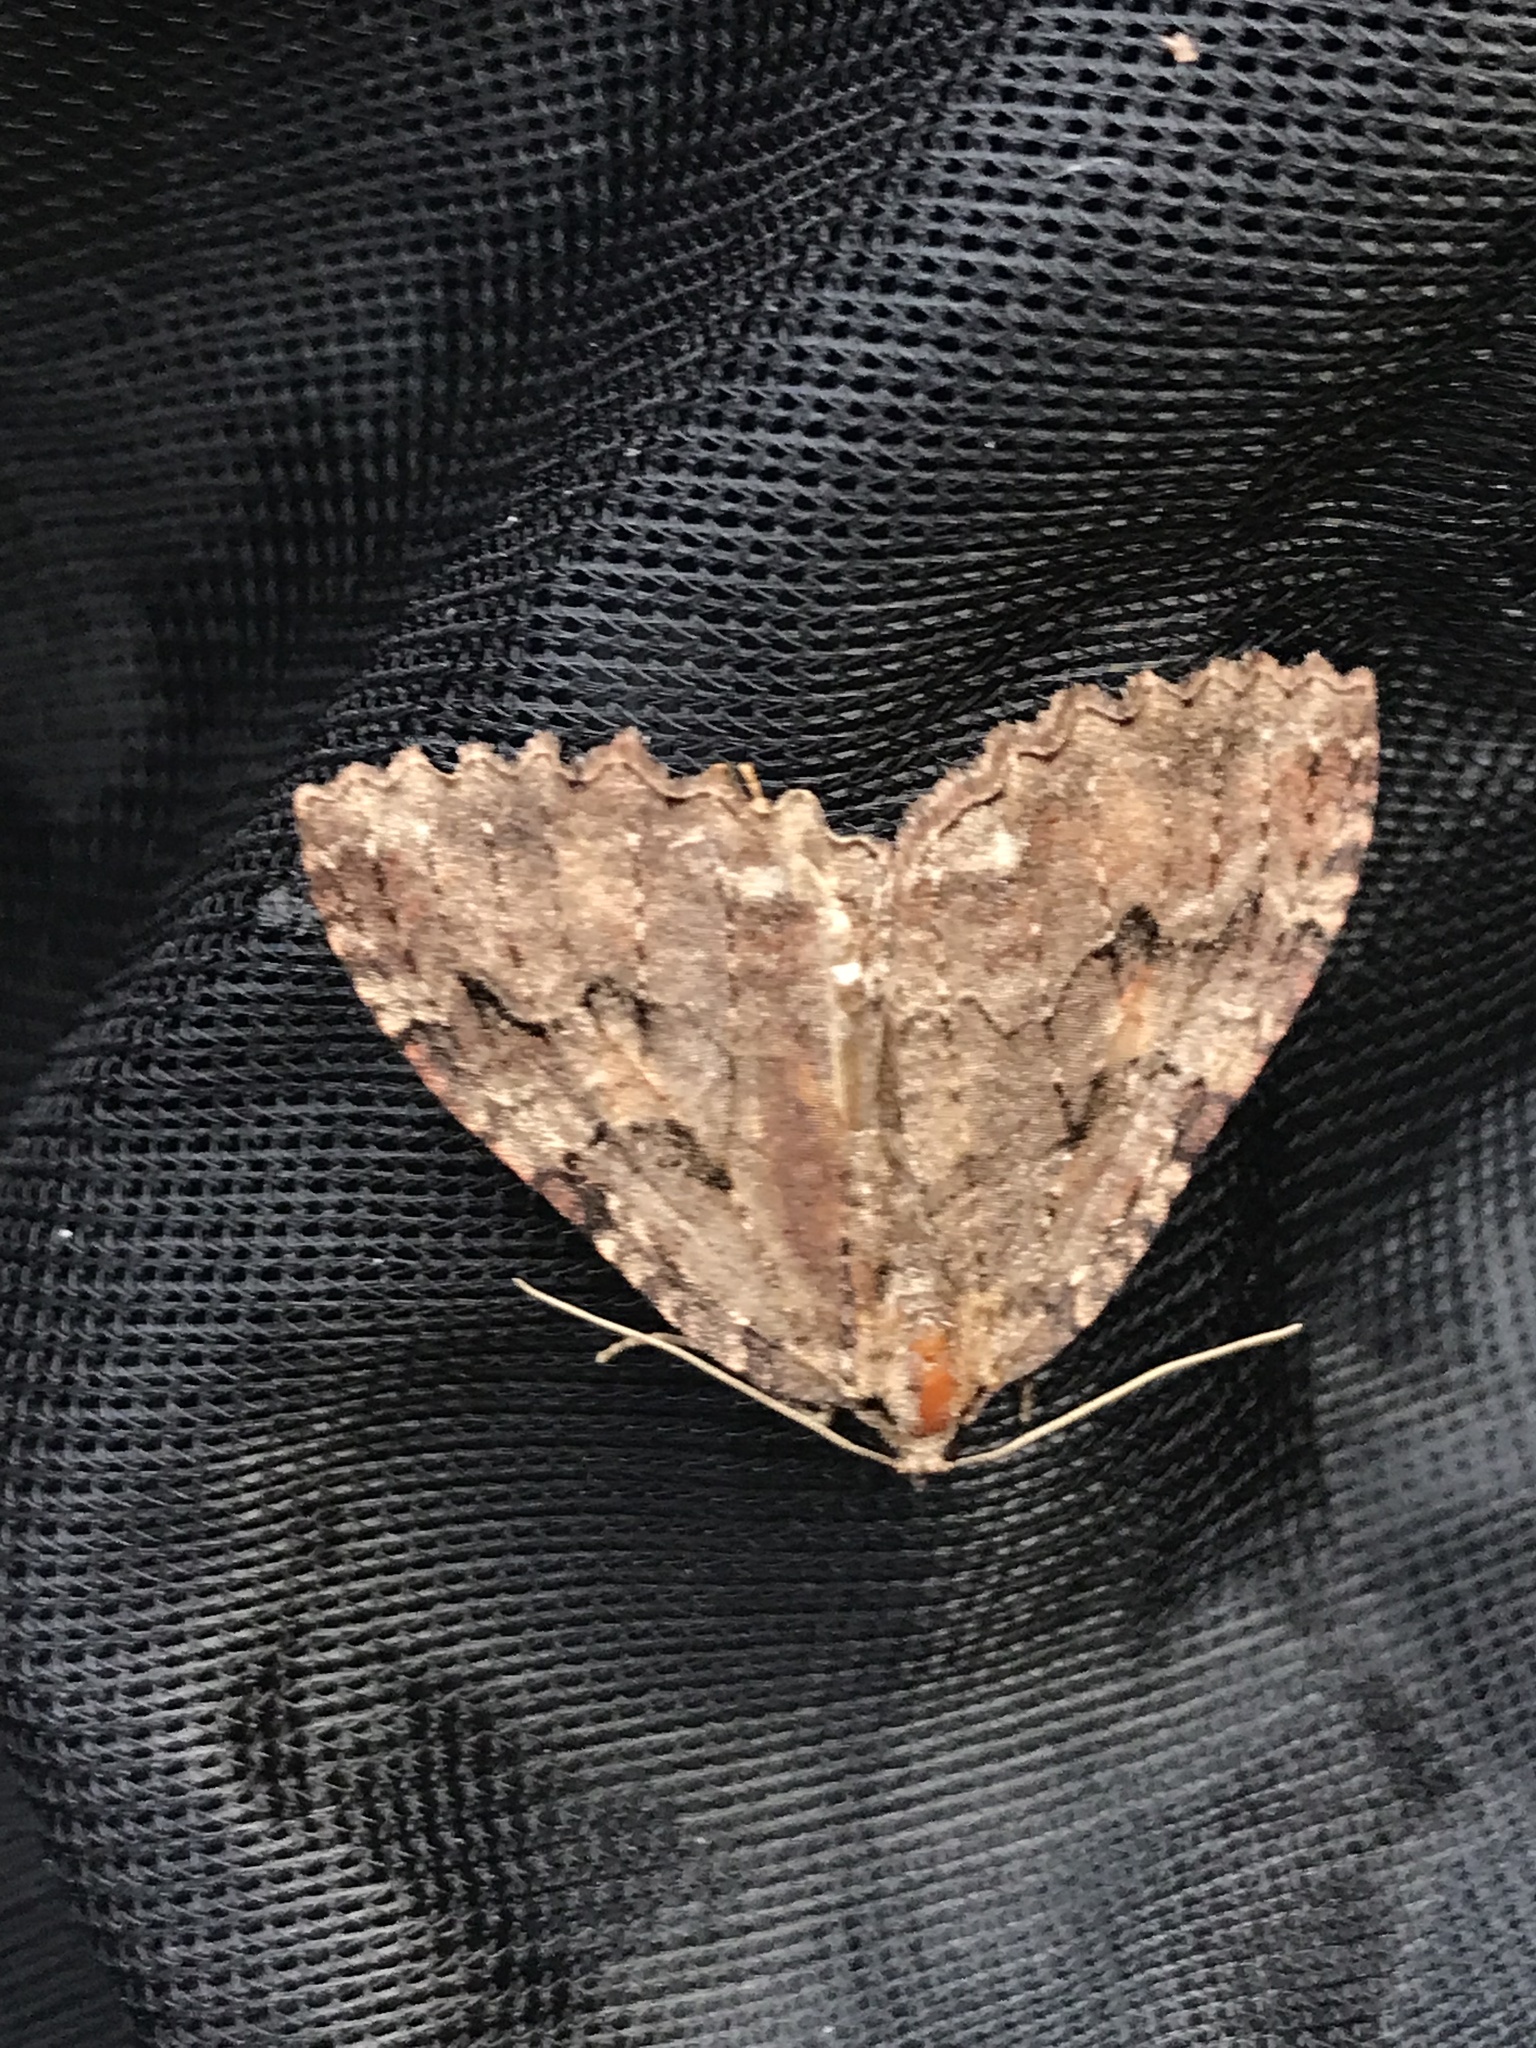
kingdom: Animalia
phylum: Arthropoda
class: Insecta
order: Lepidoptera
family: Geometridae
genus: Triphosa
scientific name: Triphosa haesitata
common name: Tissue moth
